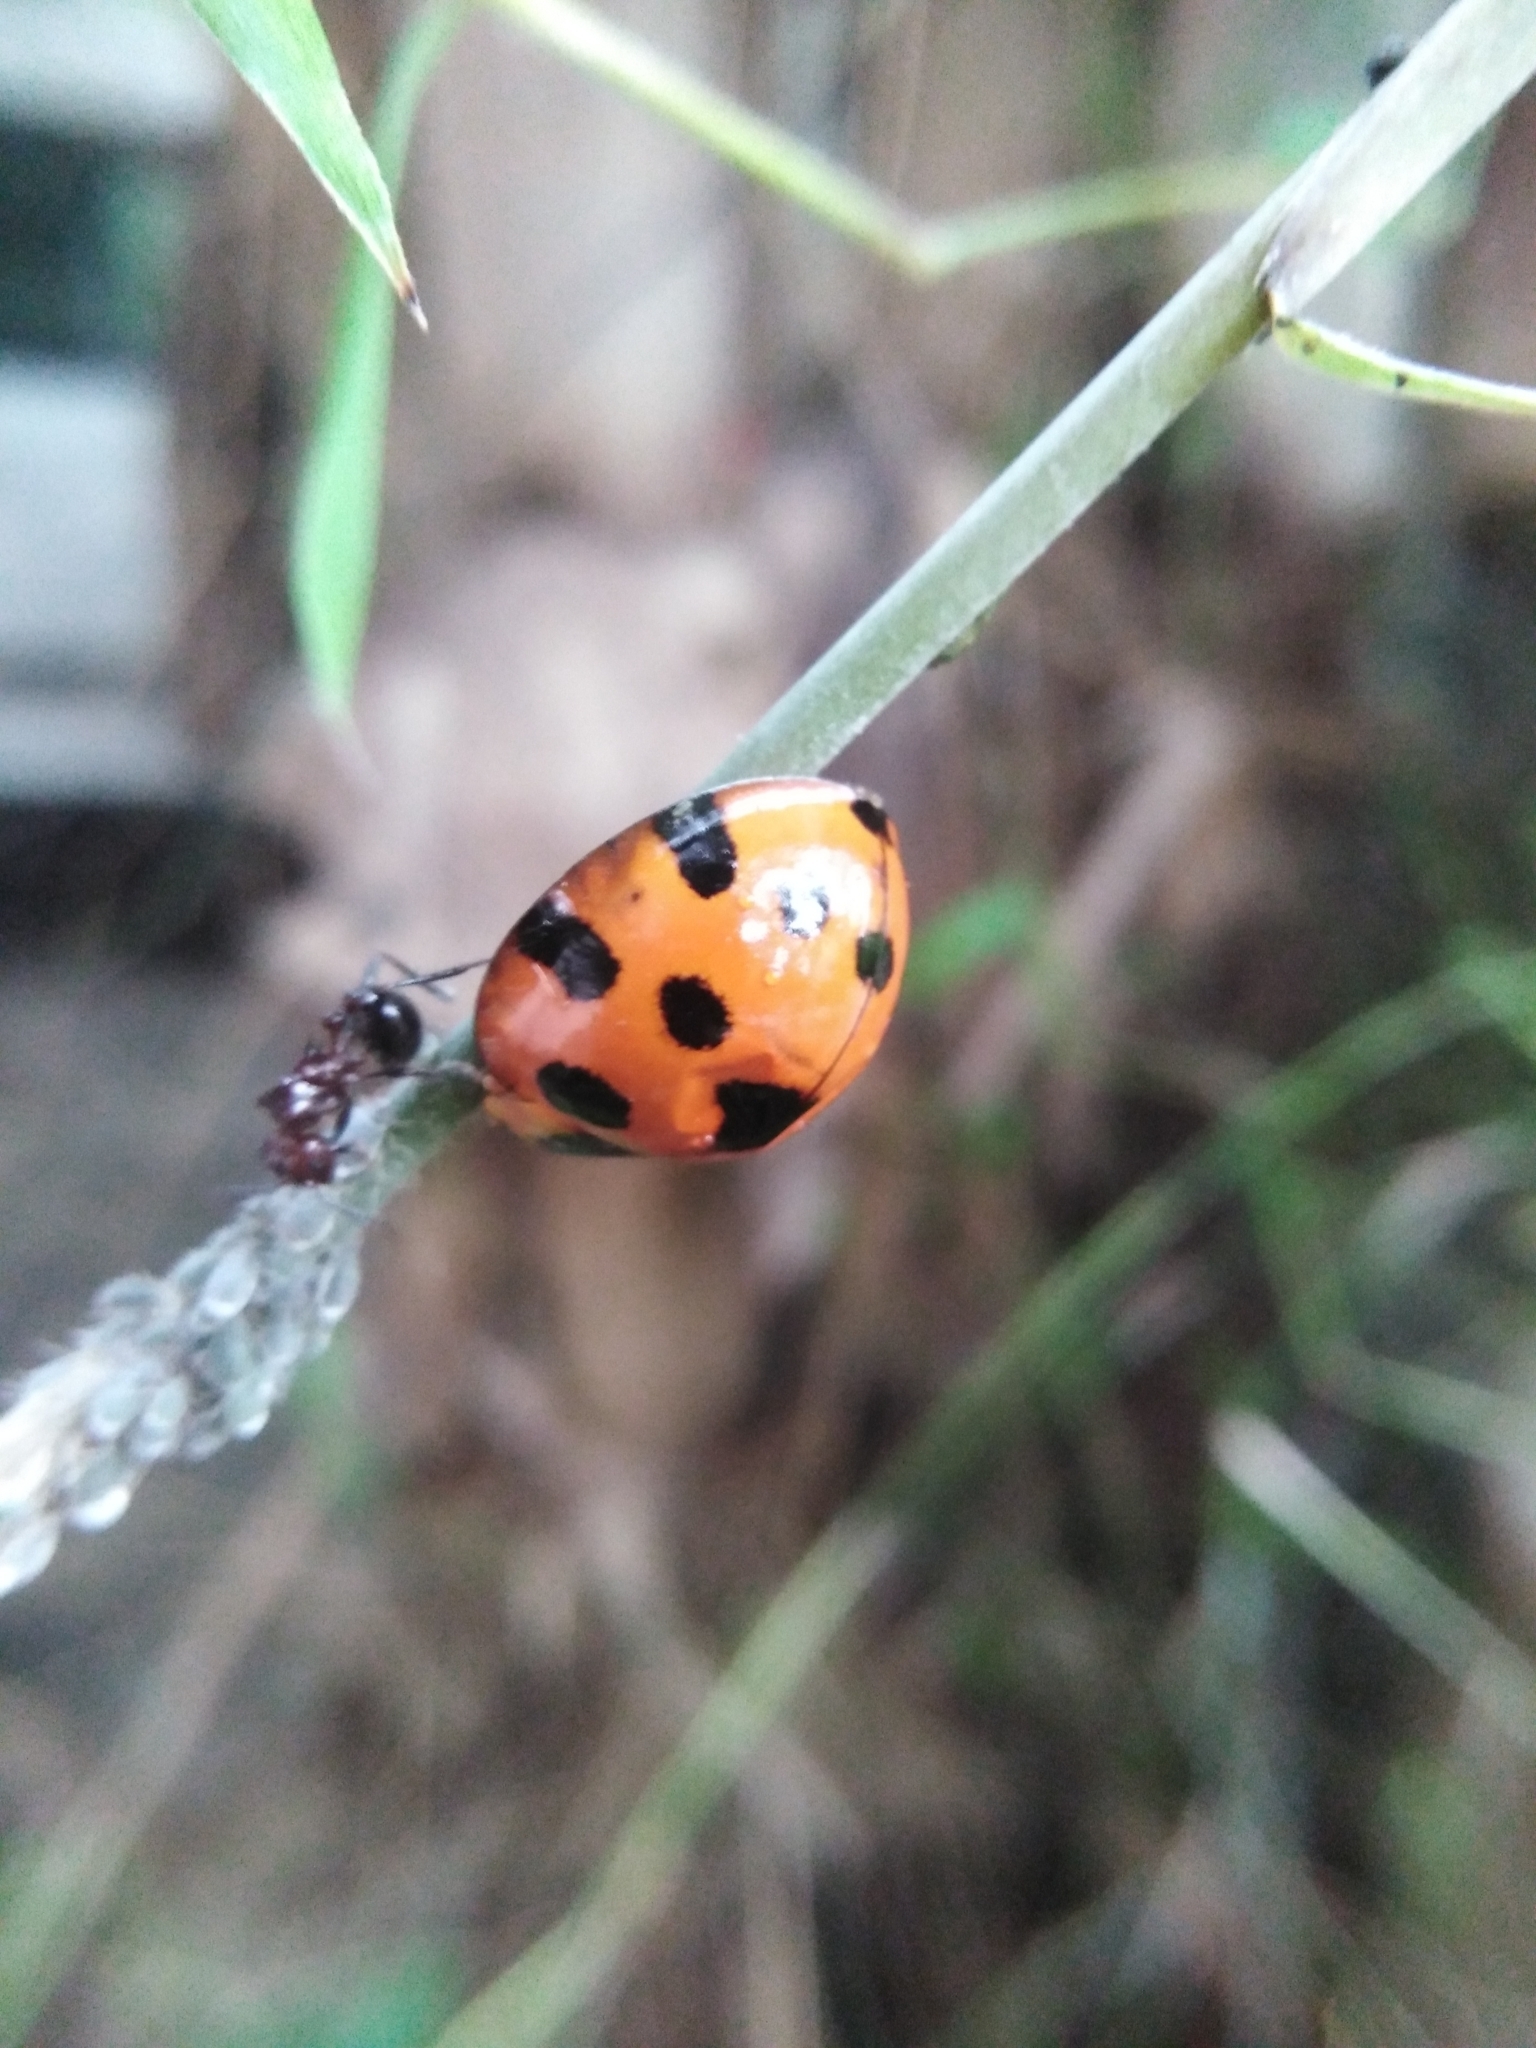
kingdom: Animalia
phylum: Arthropoda
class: Insecta
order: Coleoptera
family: Coccinellidae
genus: Synonycha
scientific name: Synonycha grandis
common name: Lady beetle
